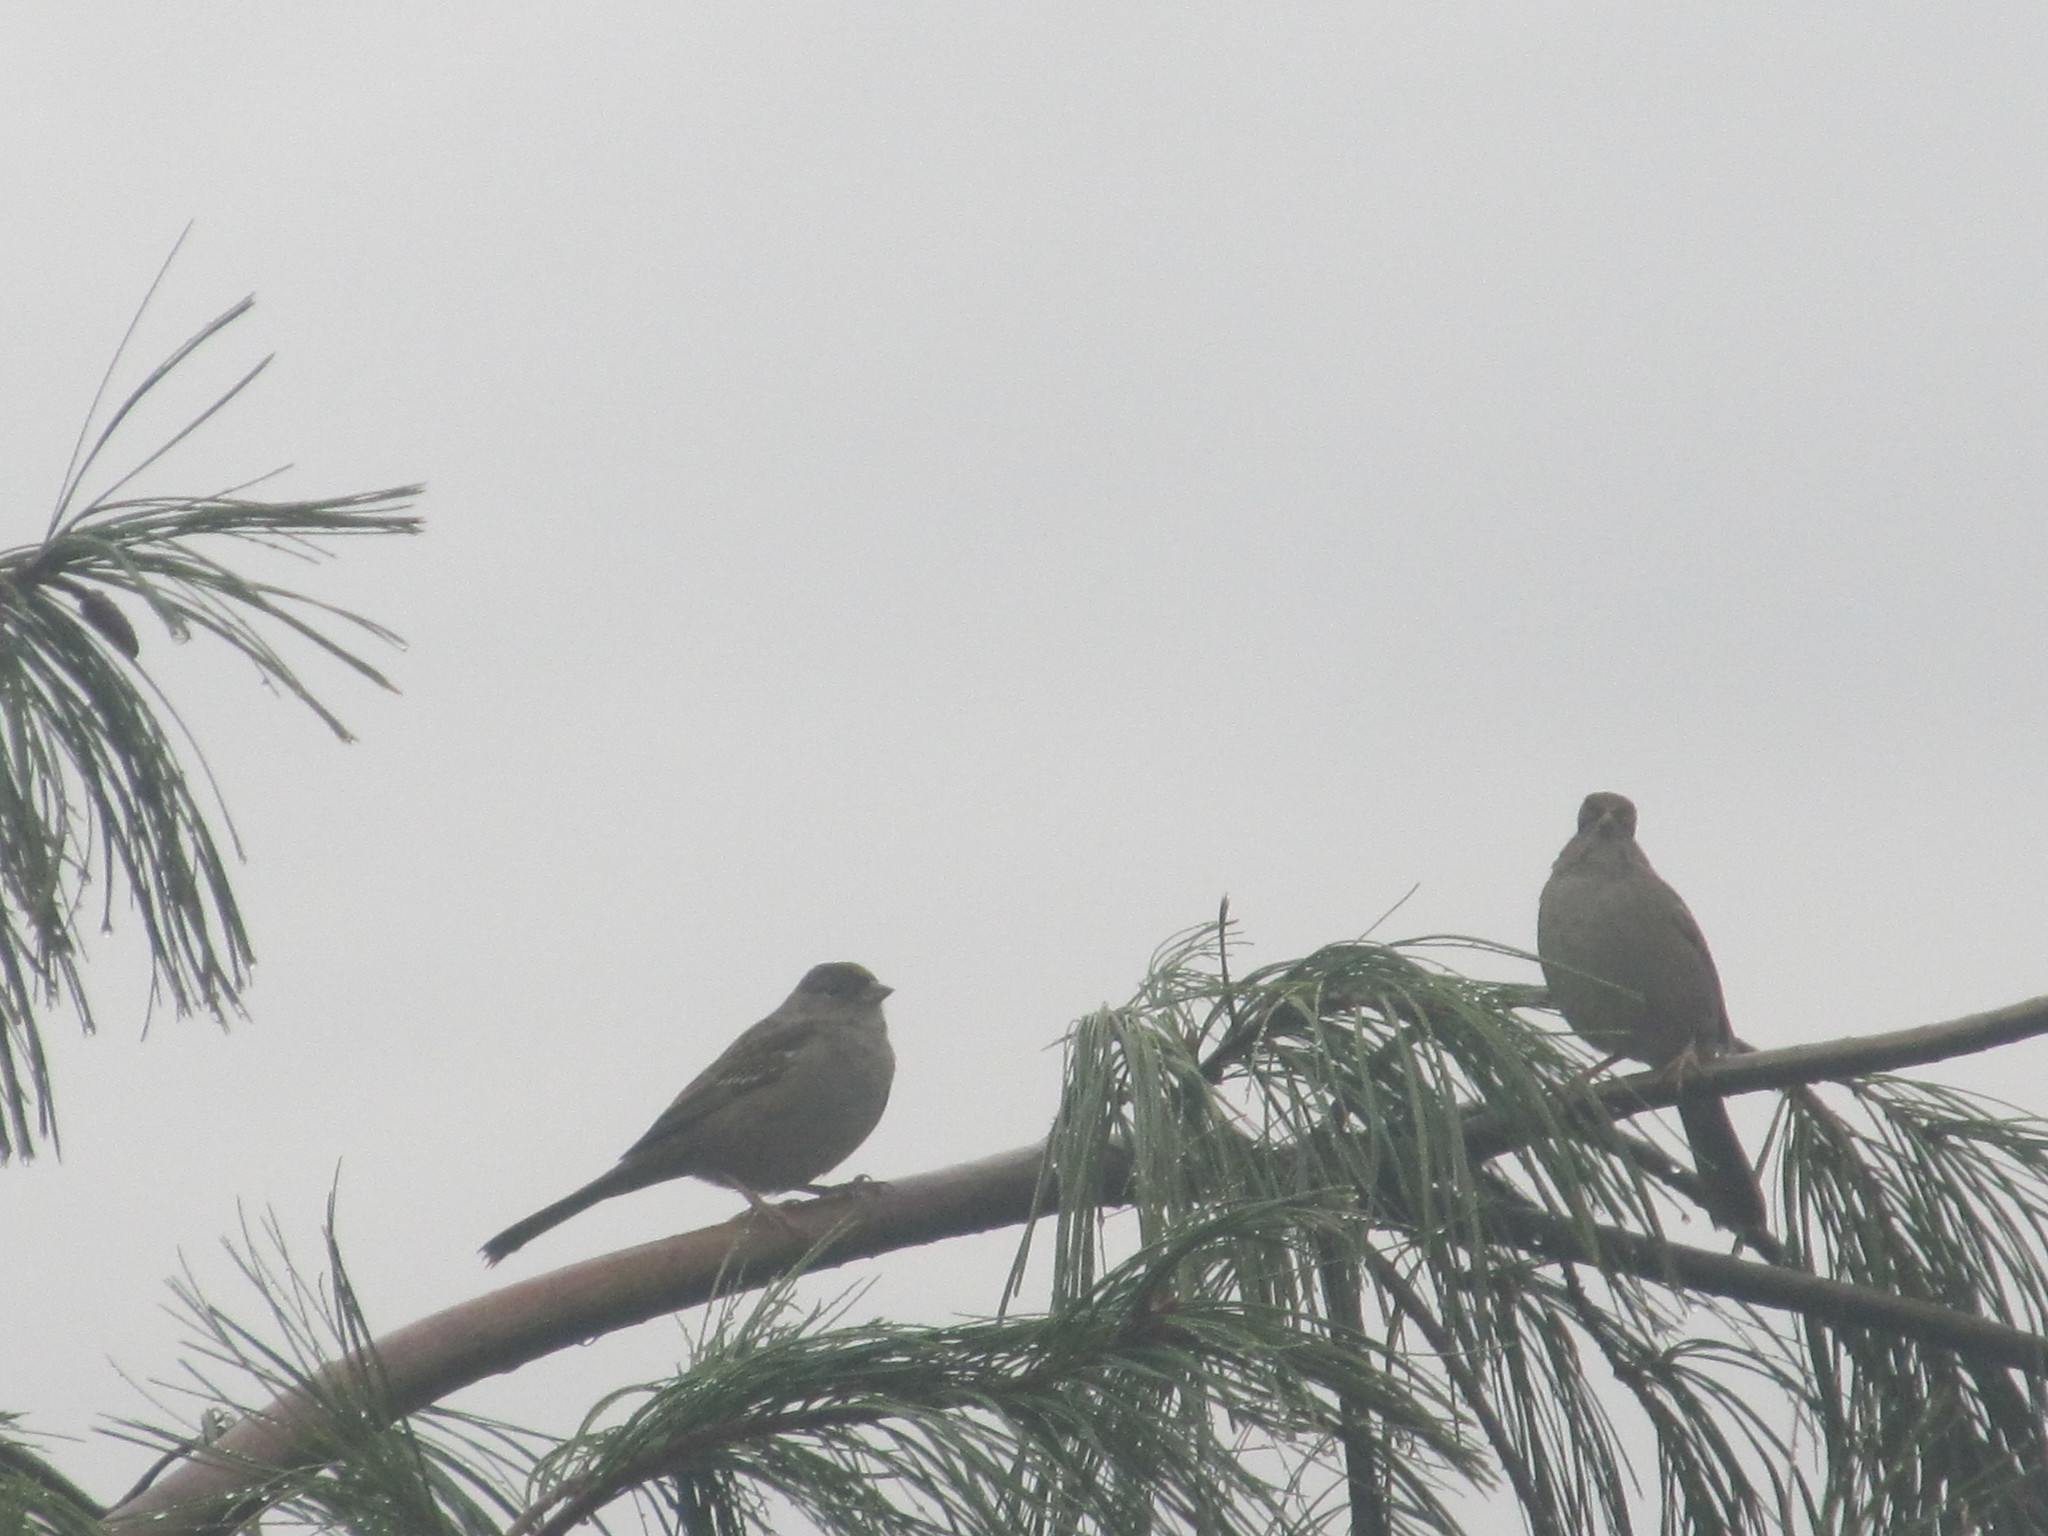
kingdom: Animalia
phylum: Chordata
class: Aves
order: Passeriformes
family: Passerellidae
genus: Zonotrichia
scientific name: Zonotrichia atricapilla
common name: Golden-crowned sparrow
